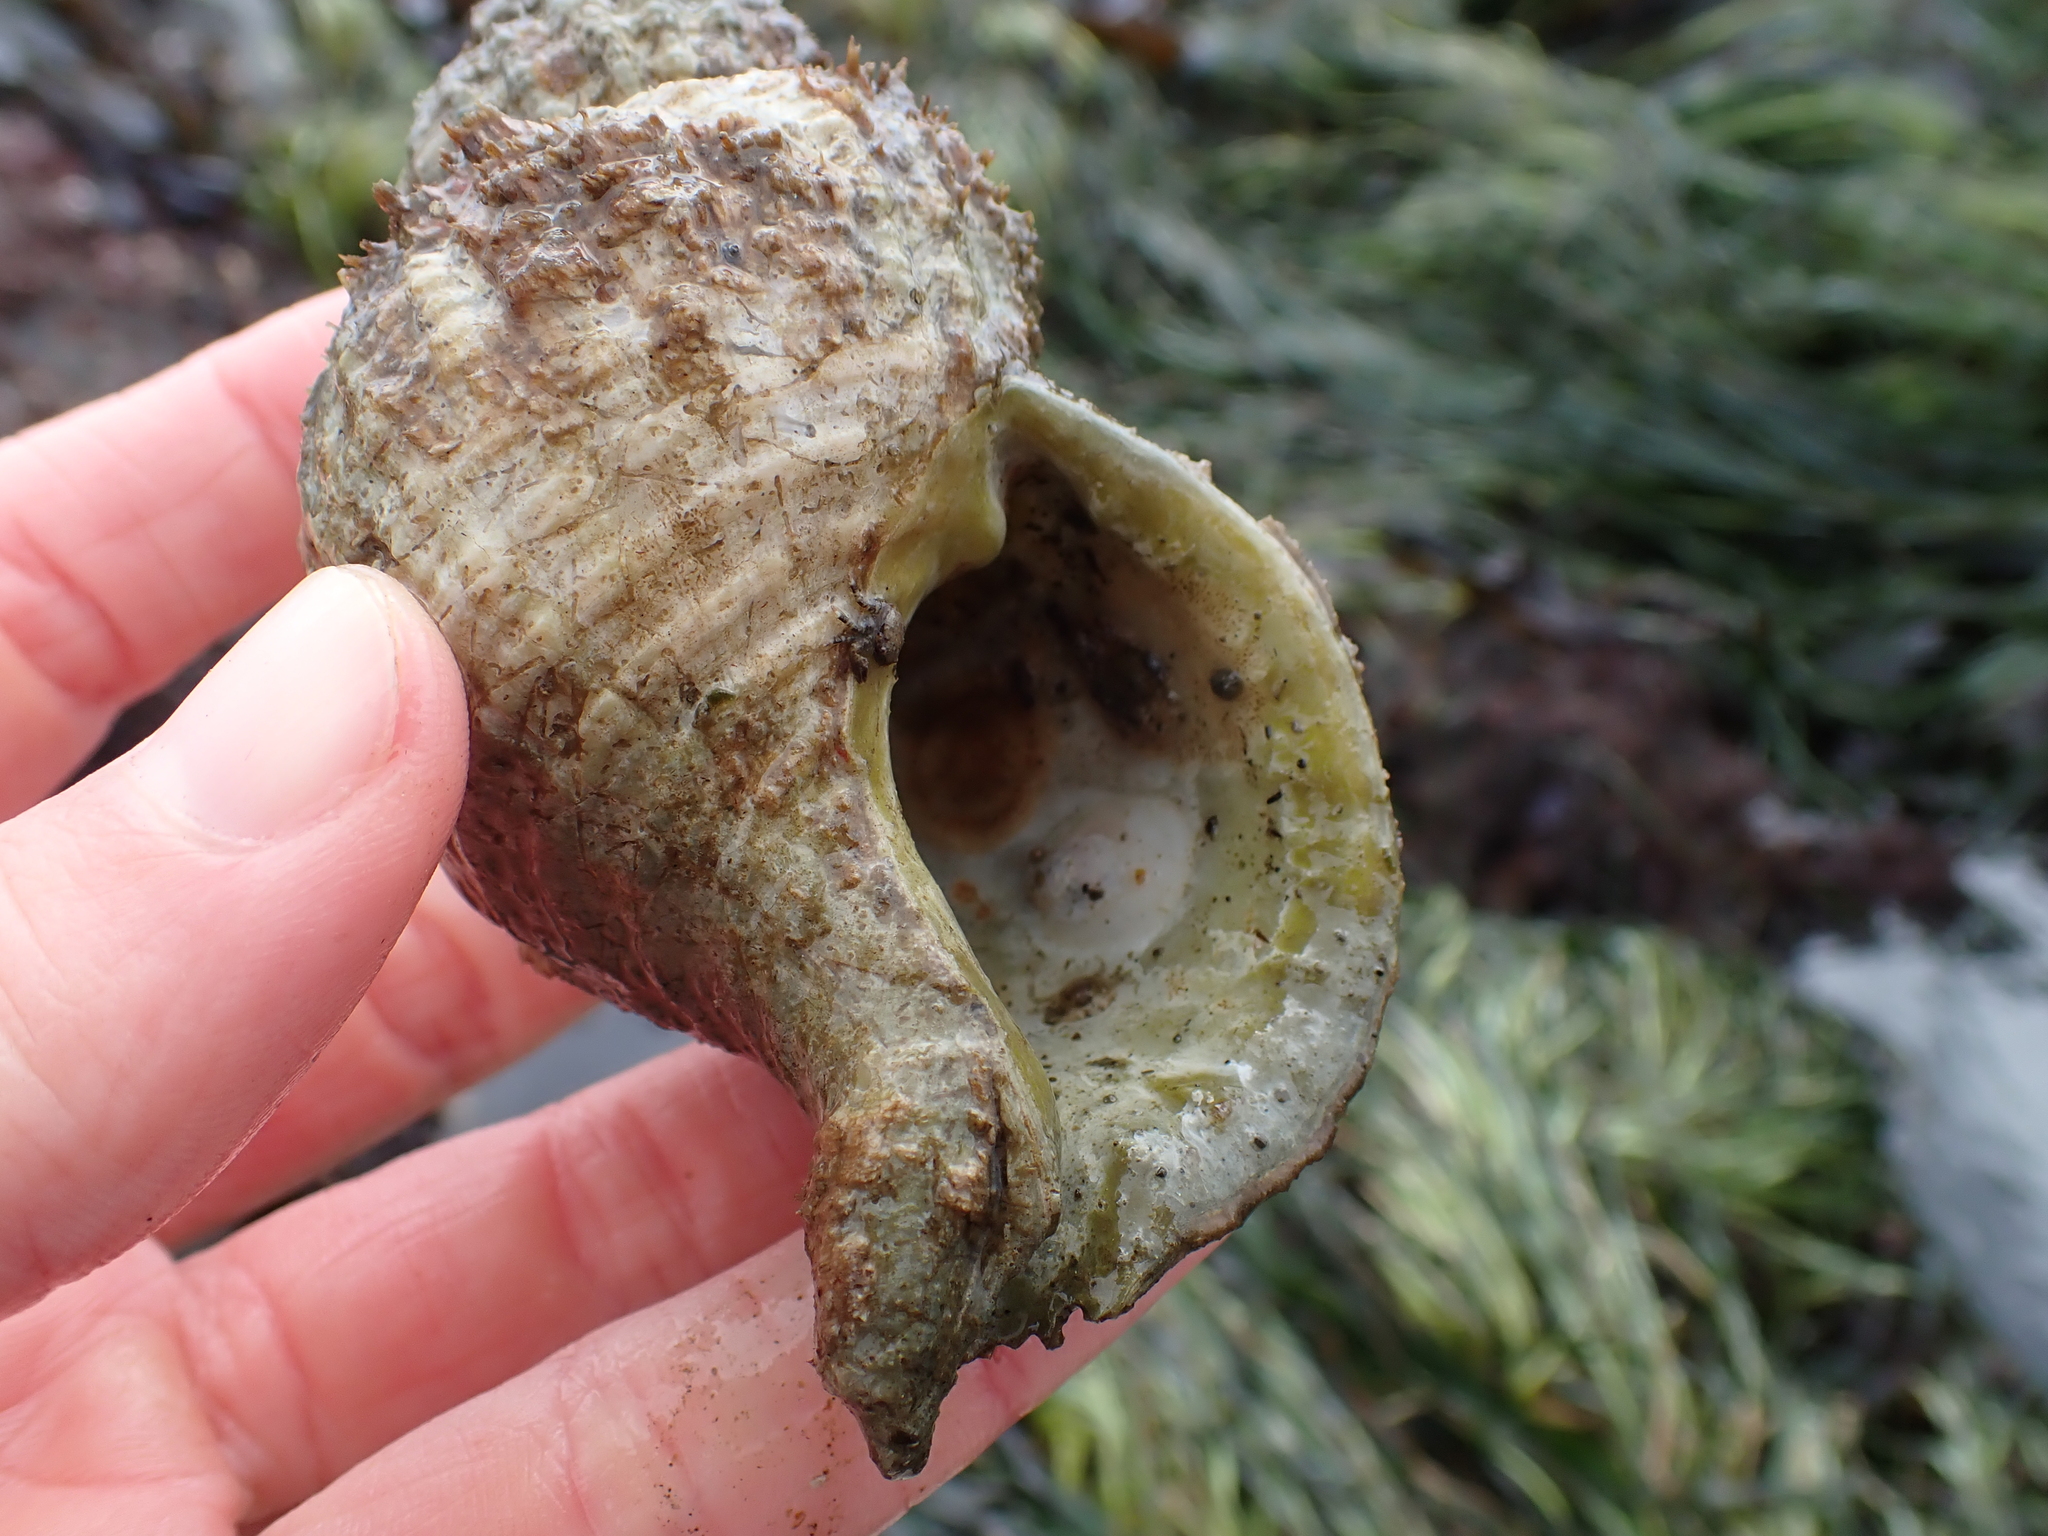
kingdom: Animalia
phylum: Mollusca
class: Gastropoda
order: Littorinimorpha
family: Cymatiidae
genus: Fusitriton
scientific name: Fusitriton oregonensis
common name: Oregon hairy triton
